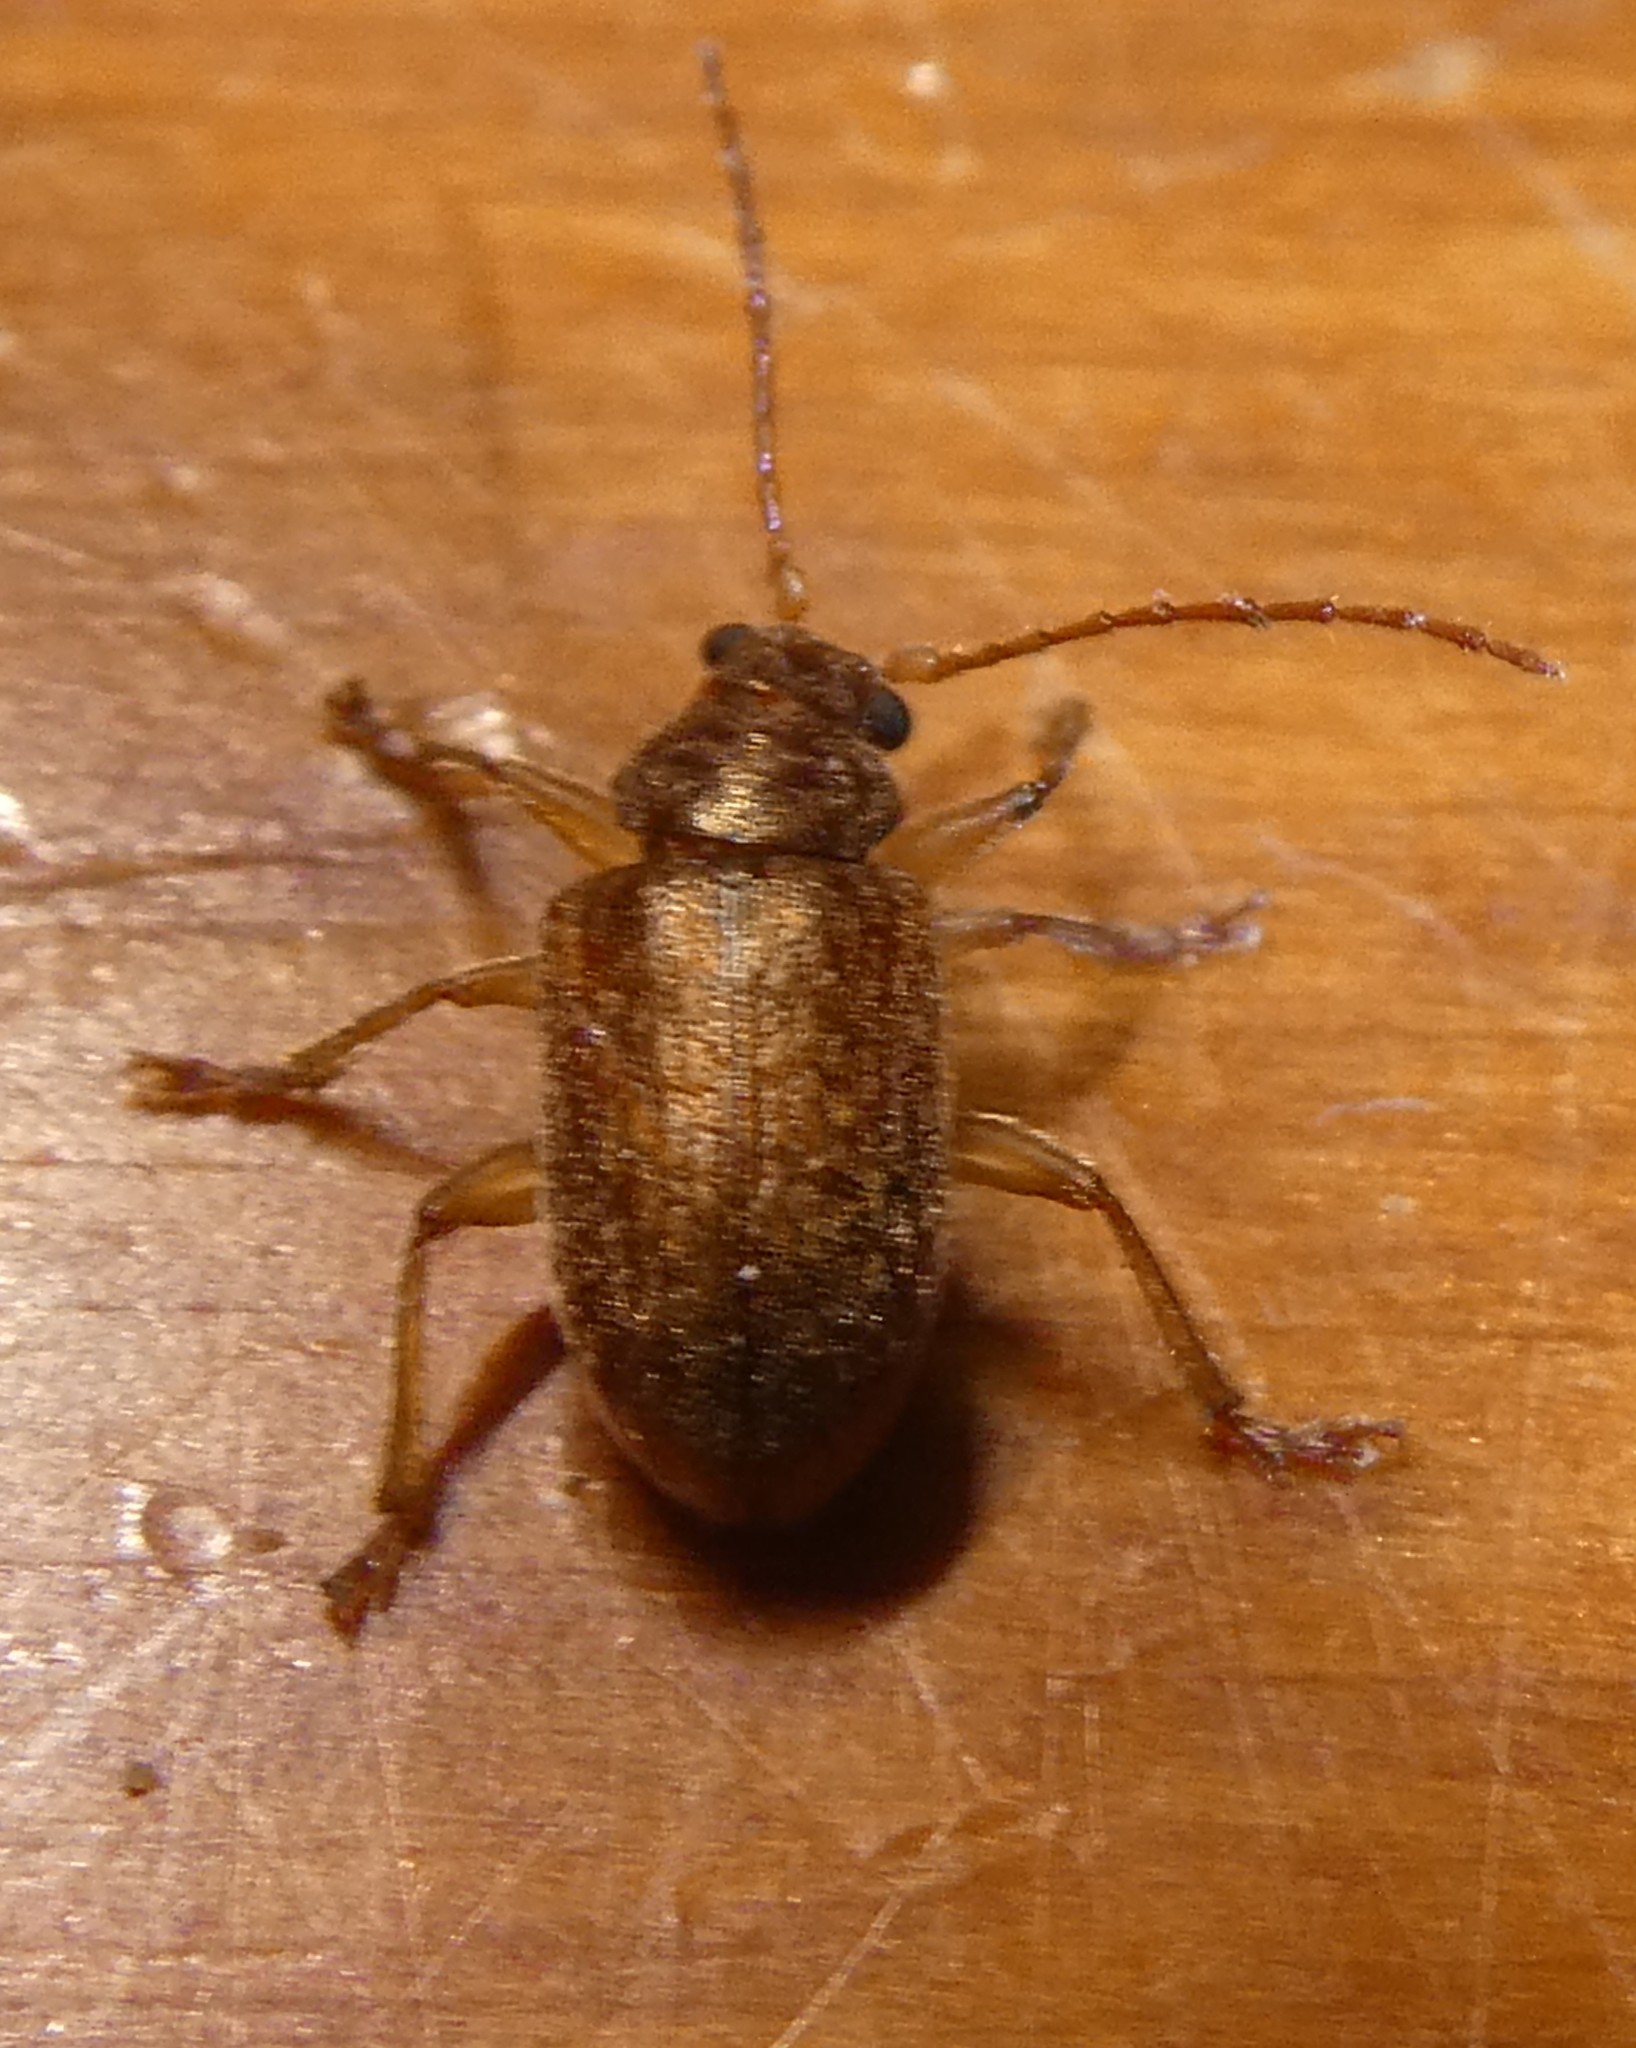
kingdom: Animalia
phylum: Arthropoda
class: Insecta
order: Coleoptera
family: Chrysomelidae
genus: Pilacolaspis
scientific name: Pilacolaspis latipennis
